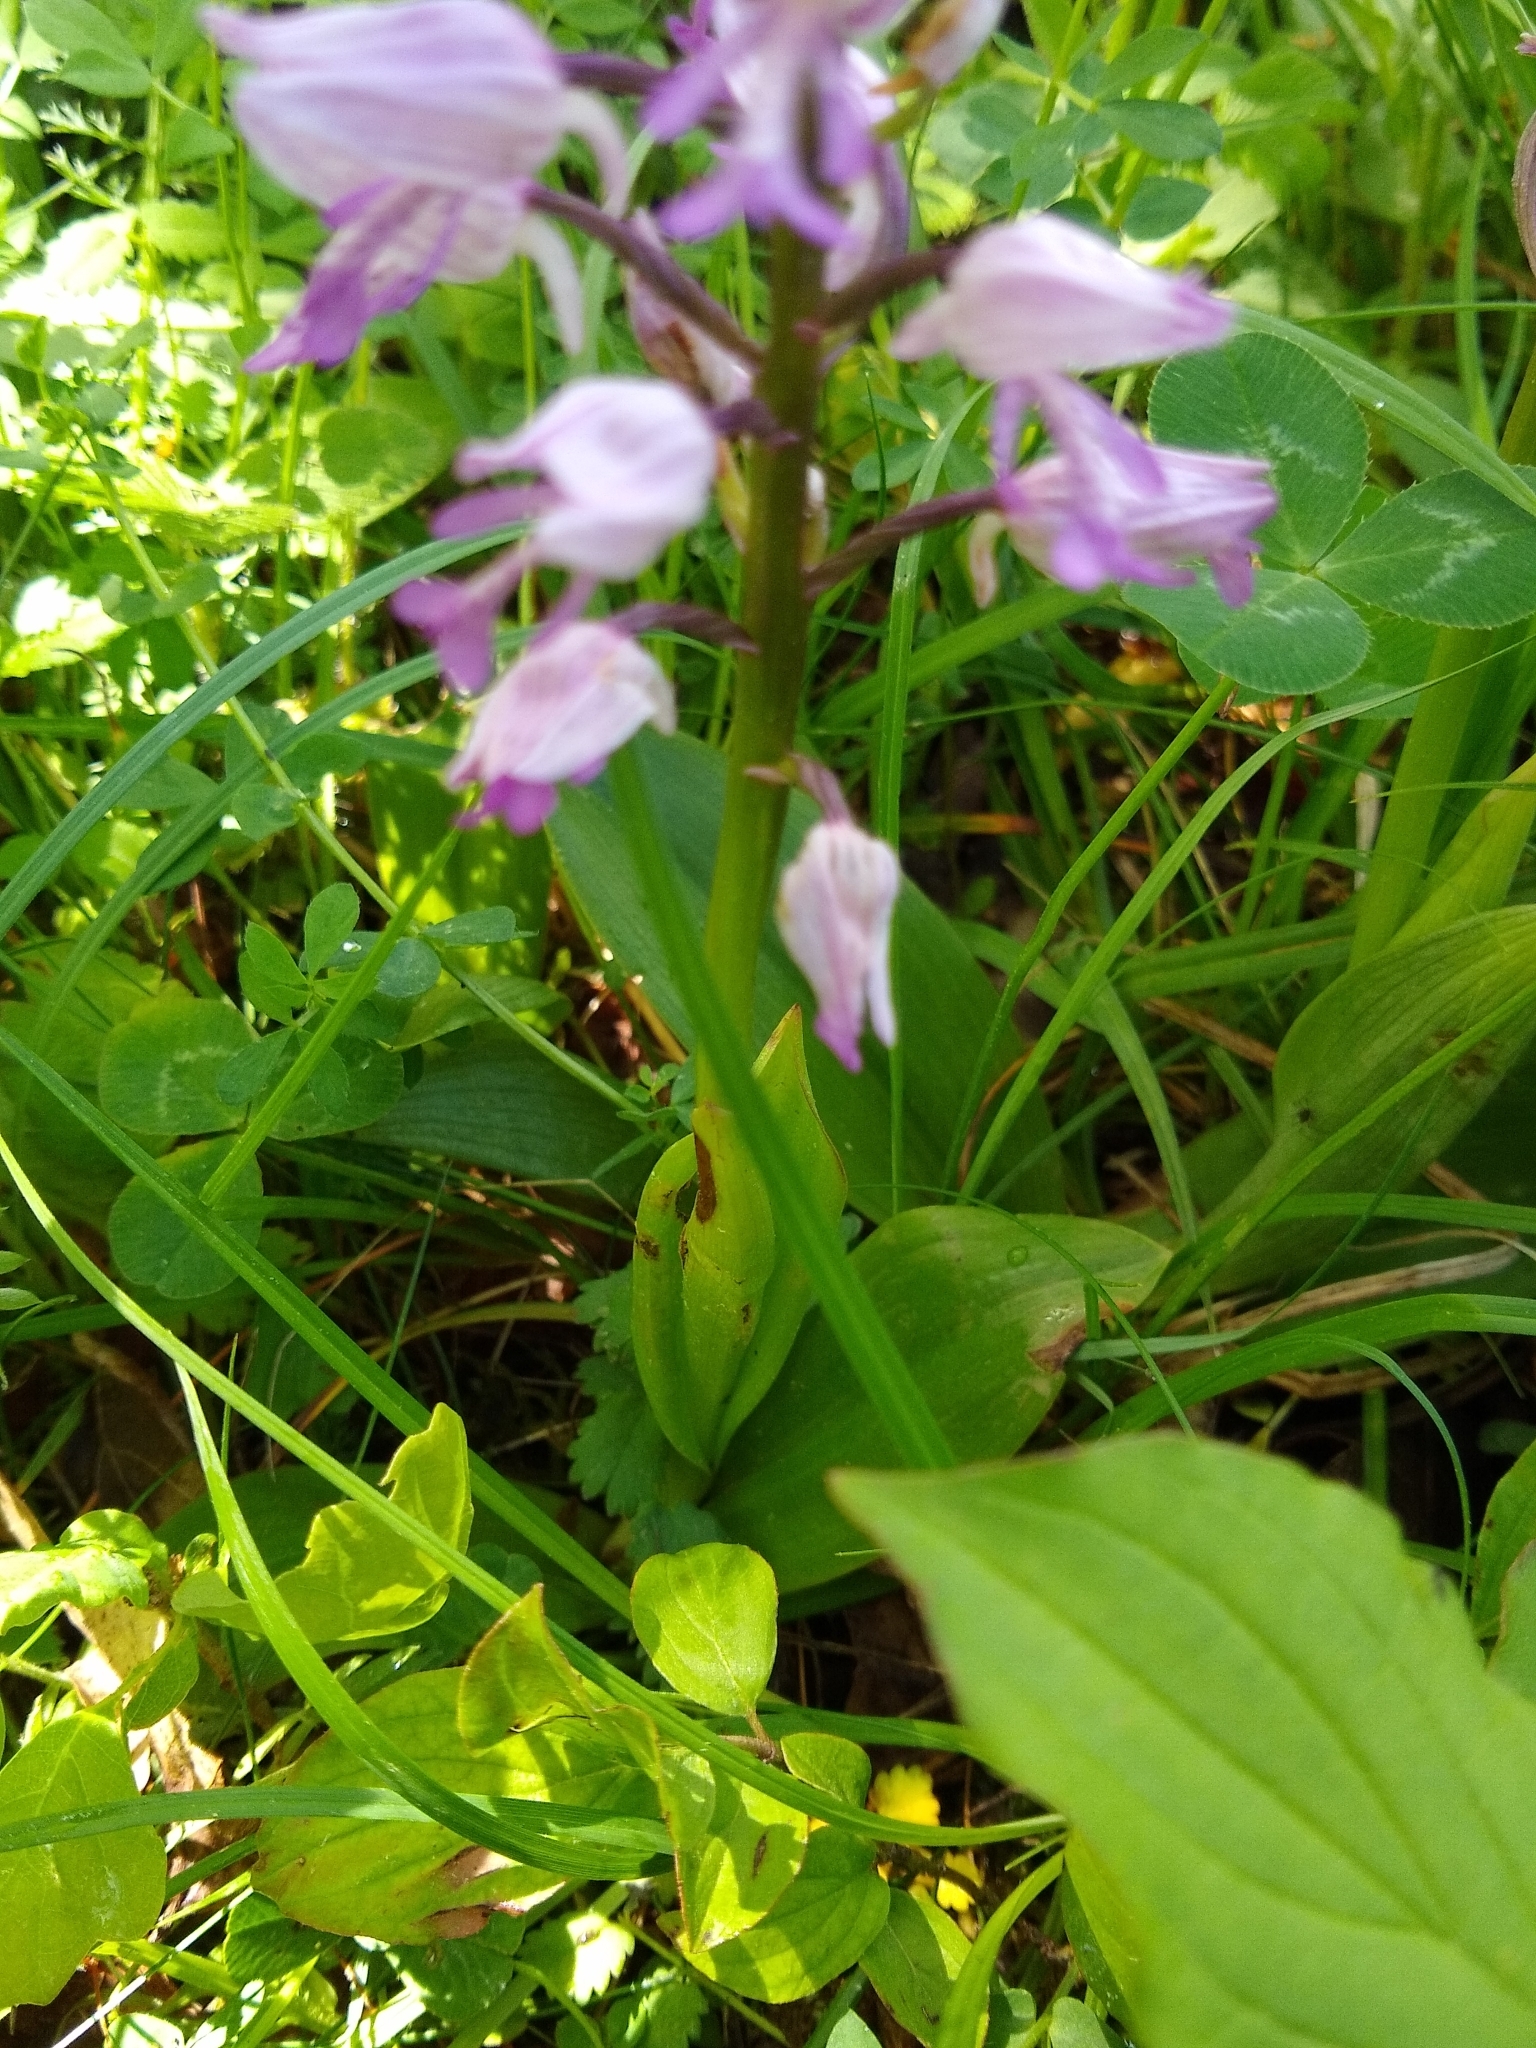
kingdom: Plantae
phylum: Tracheophyta
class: Liliopsida
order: Asparagales
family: Orchidaceae
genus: Orchis
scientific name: Orchis militaris
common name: Military orchid
